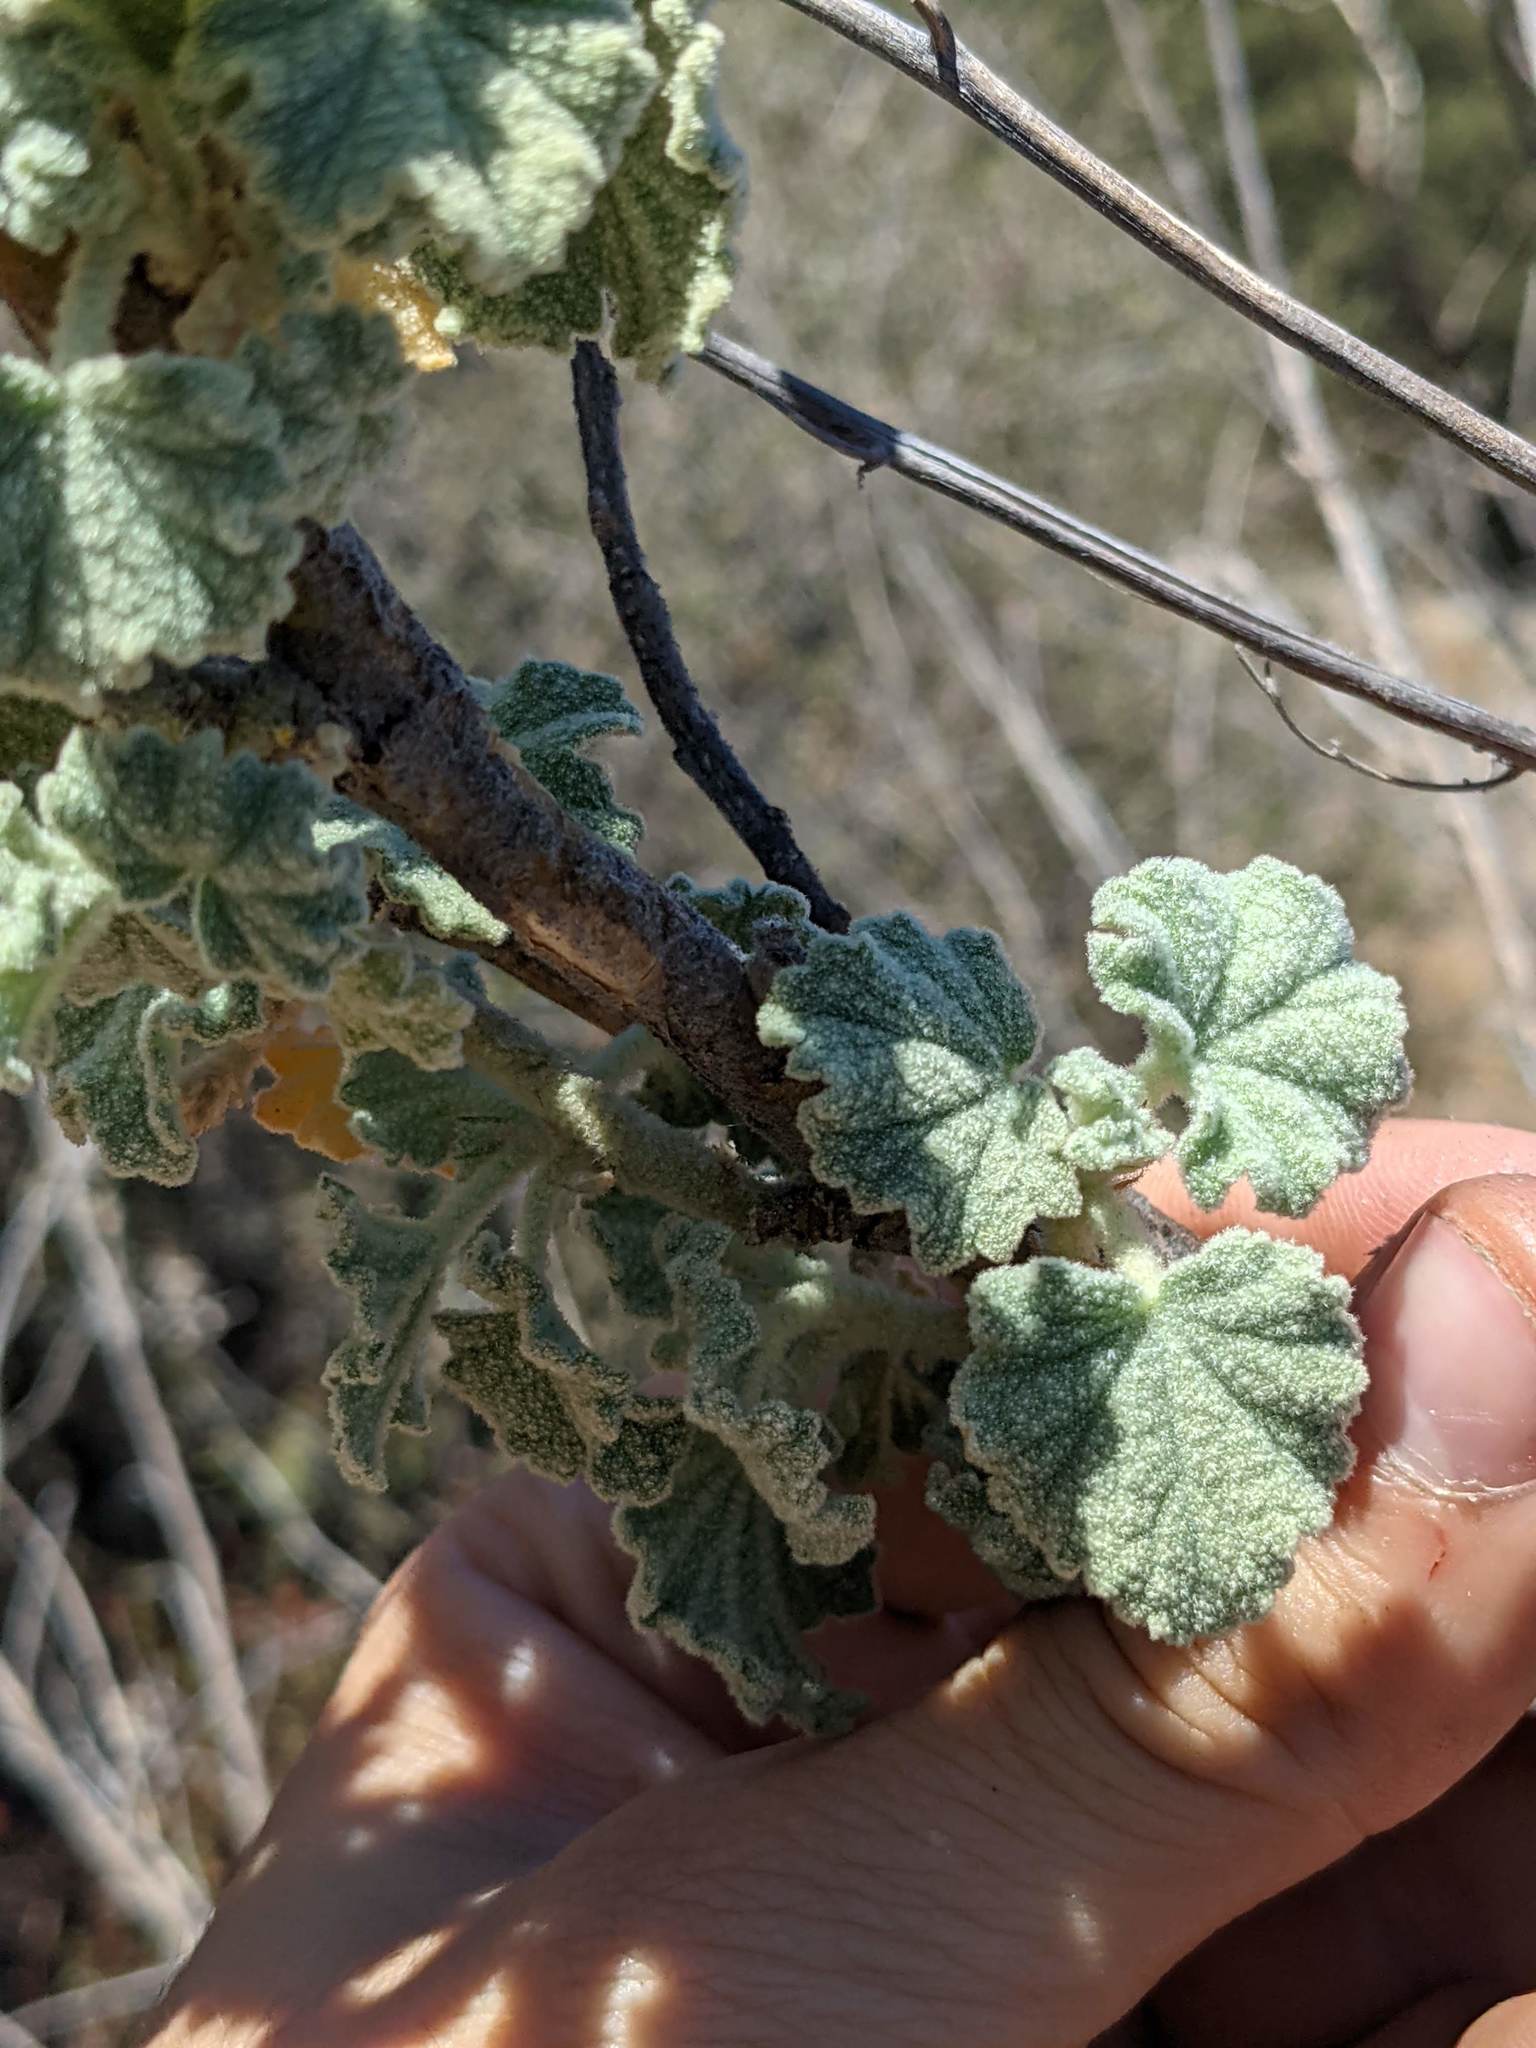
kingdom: Plantae
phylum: Tracheophyta
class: Magnoliopsida
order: Malvales
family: Malvaceae
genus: Malacothamnus
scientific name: Malacothamnus
